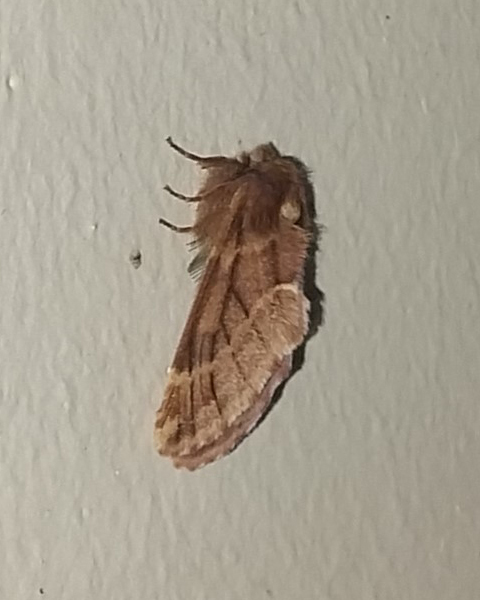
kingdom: Animalia
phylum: Arthropoda
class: Insecta
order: Lepidoptera
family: Notodontidae
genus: Ptilophora
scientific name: Ptilophora plumigera
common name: Plumed prominent
